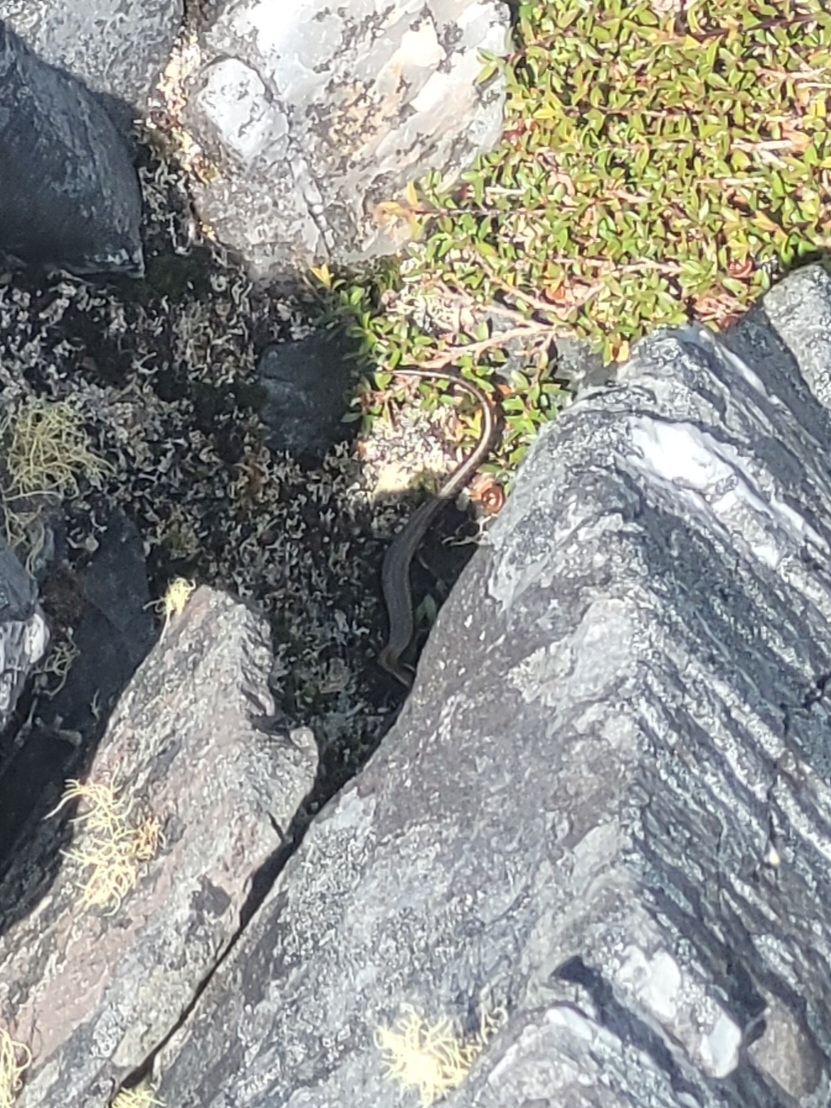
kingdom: Animalia
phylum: Chordata
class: Squamata
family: Scincidae
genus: Oligosoma
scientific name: Oligosoma newmani
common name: Newman’s speckled skink
